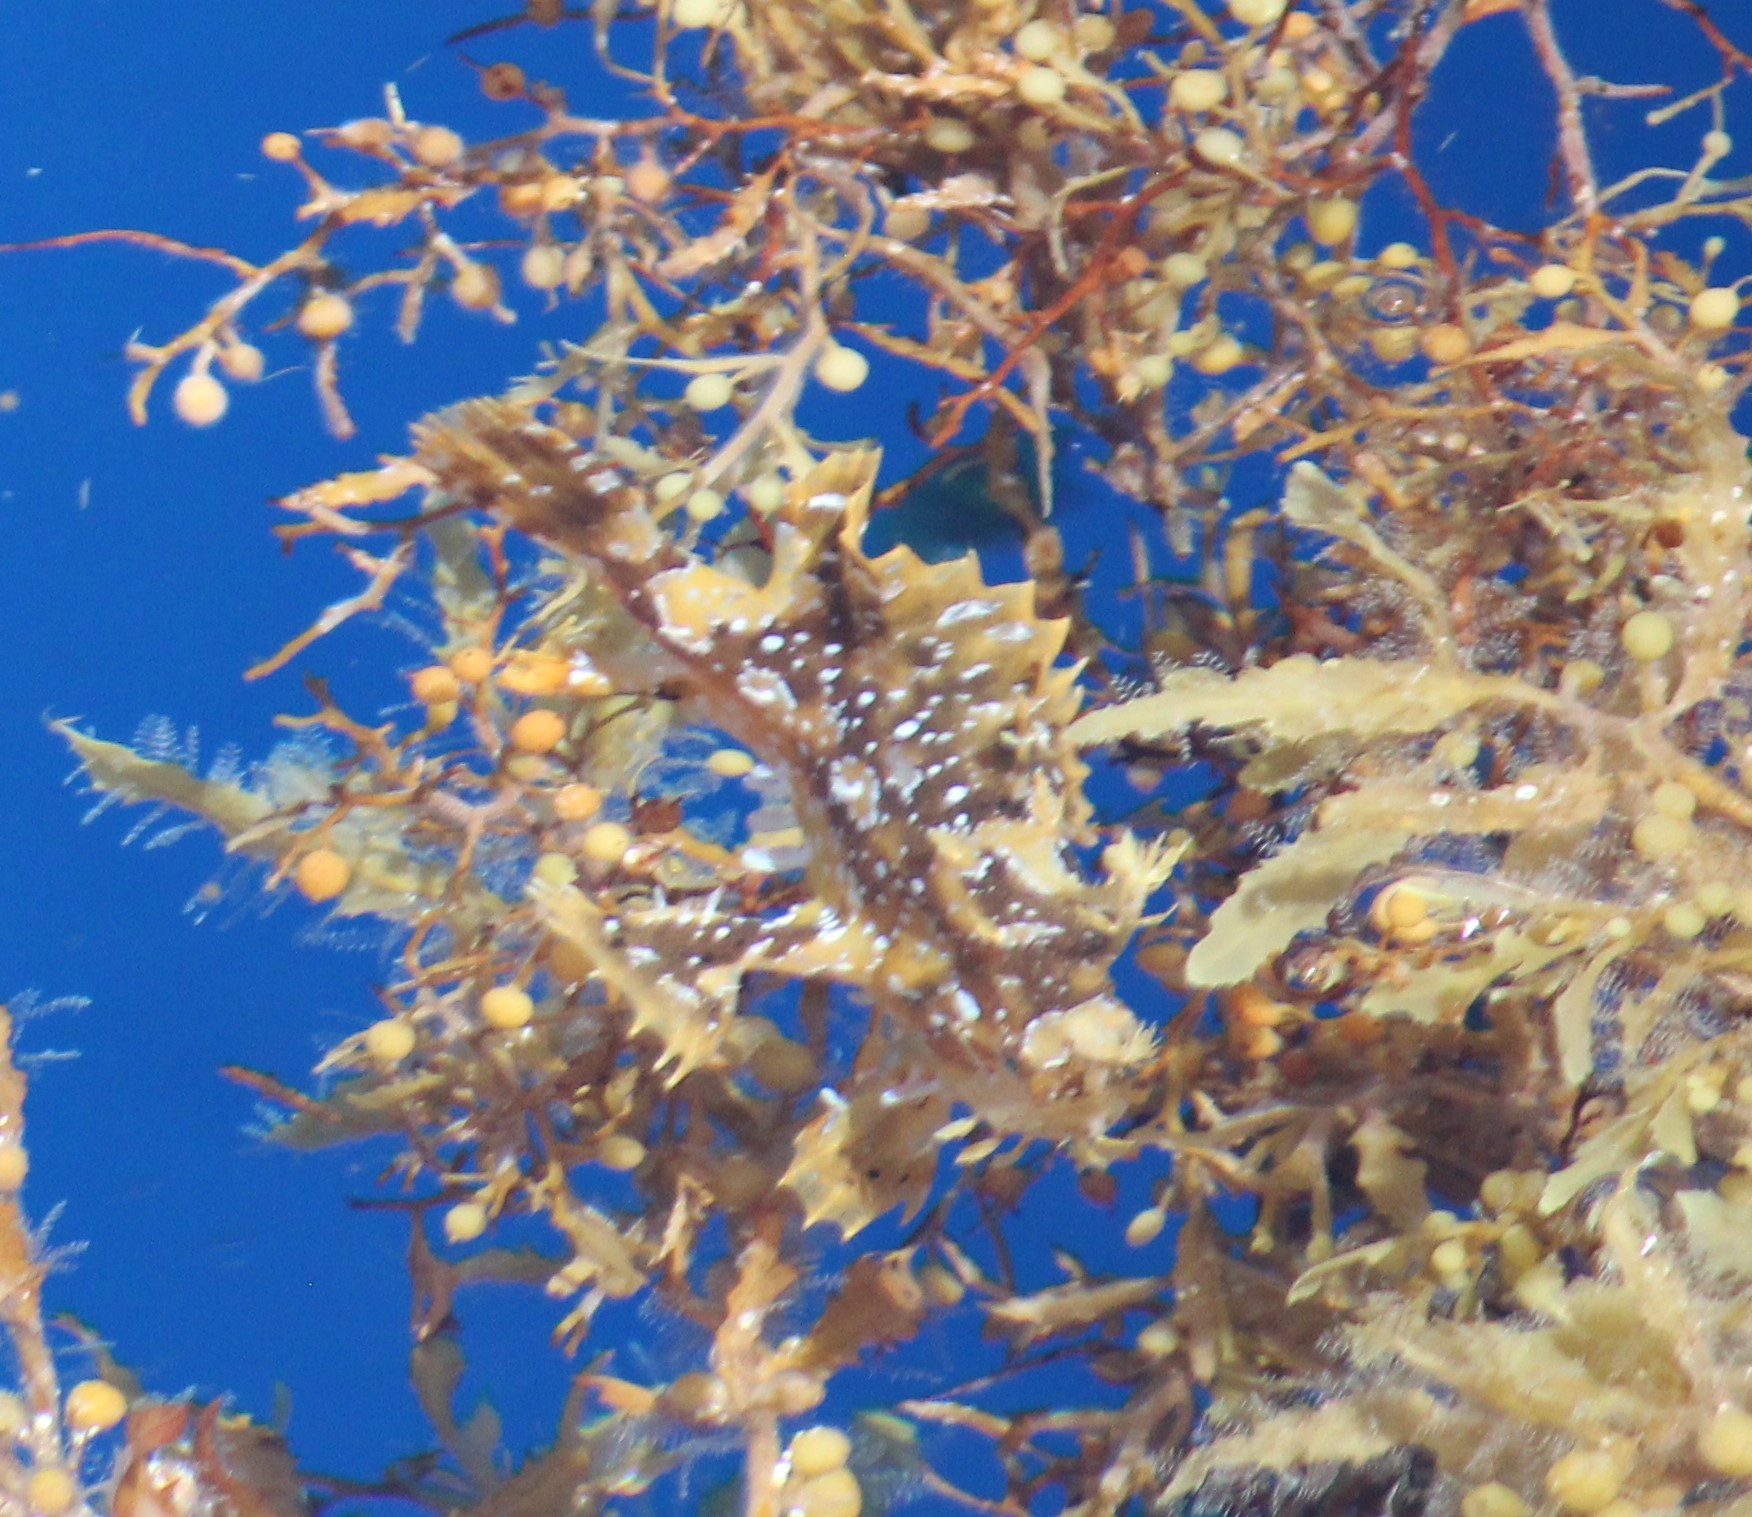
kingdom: Animalia
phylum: Chordata
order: Lophiiformes
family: Antennariidae
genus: Histrio
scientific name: Histrio histrio
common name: Sargassumfish
